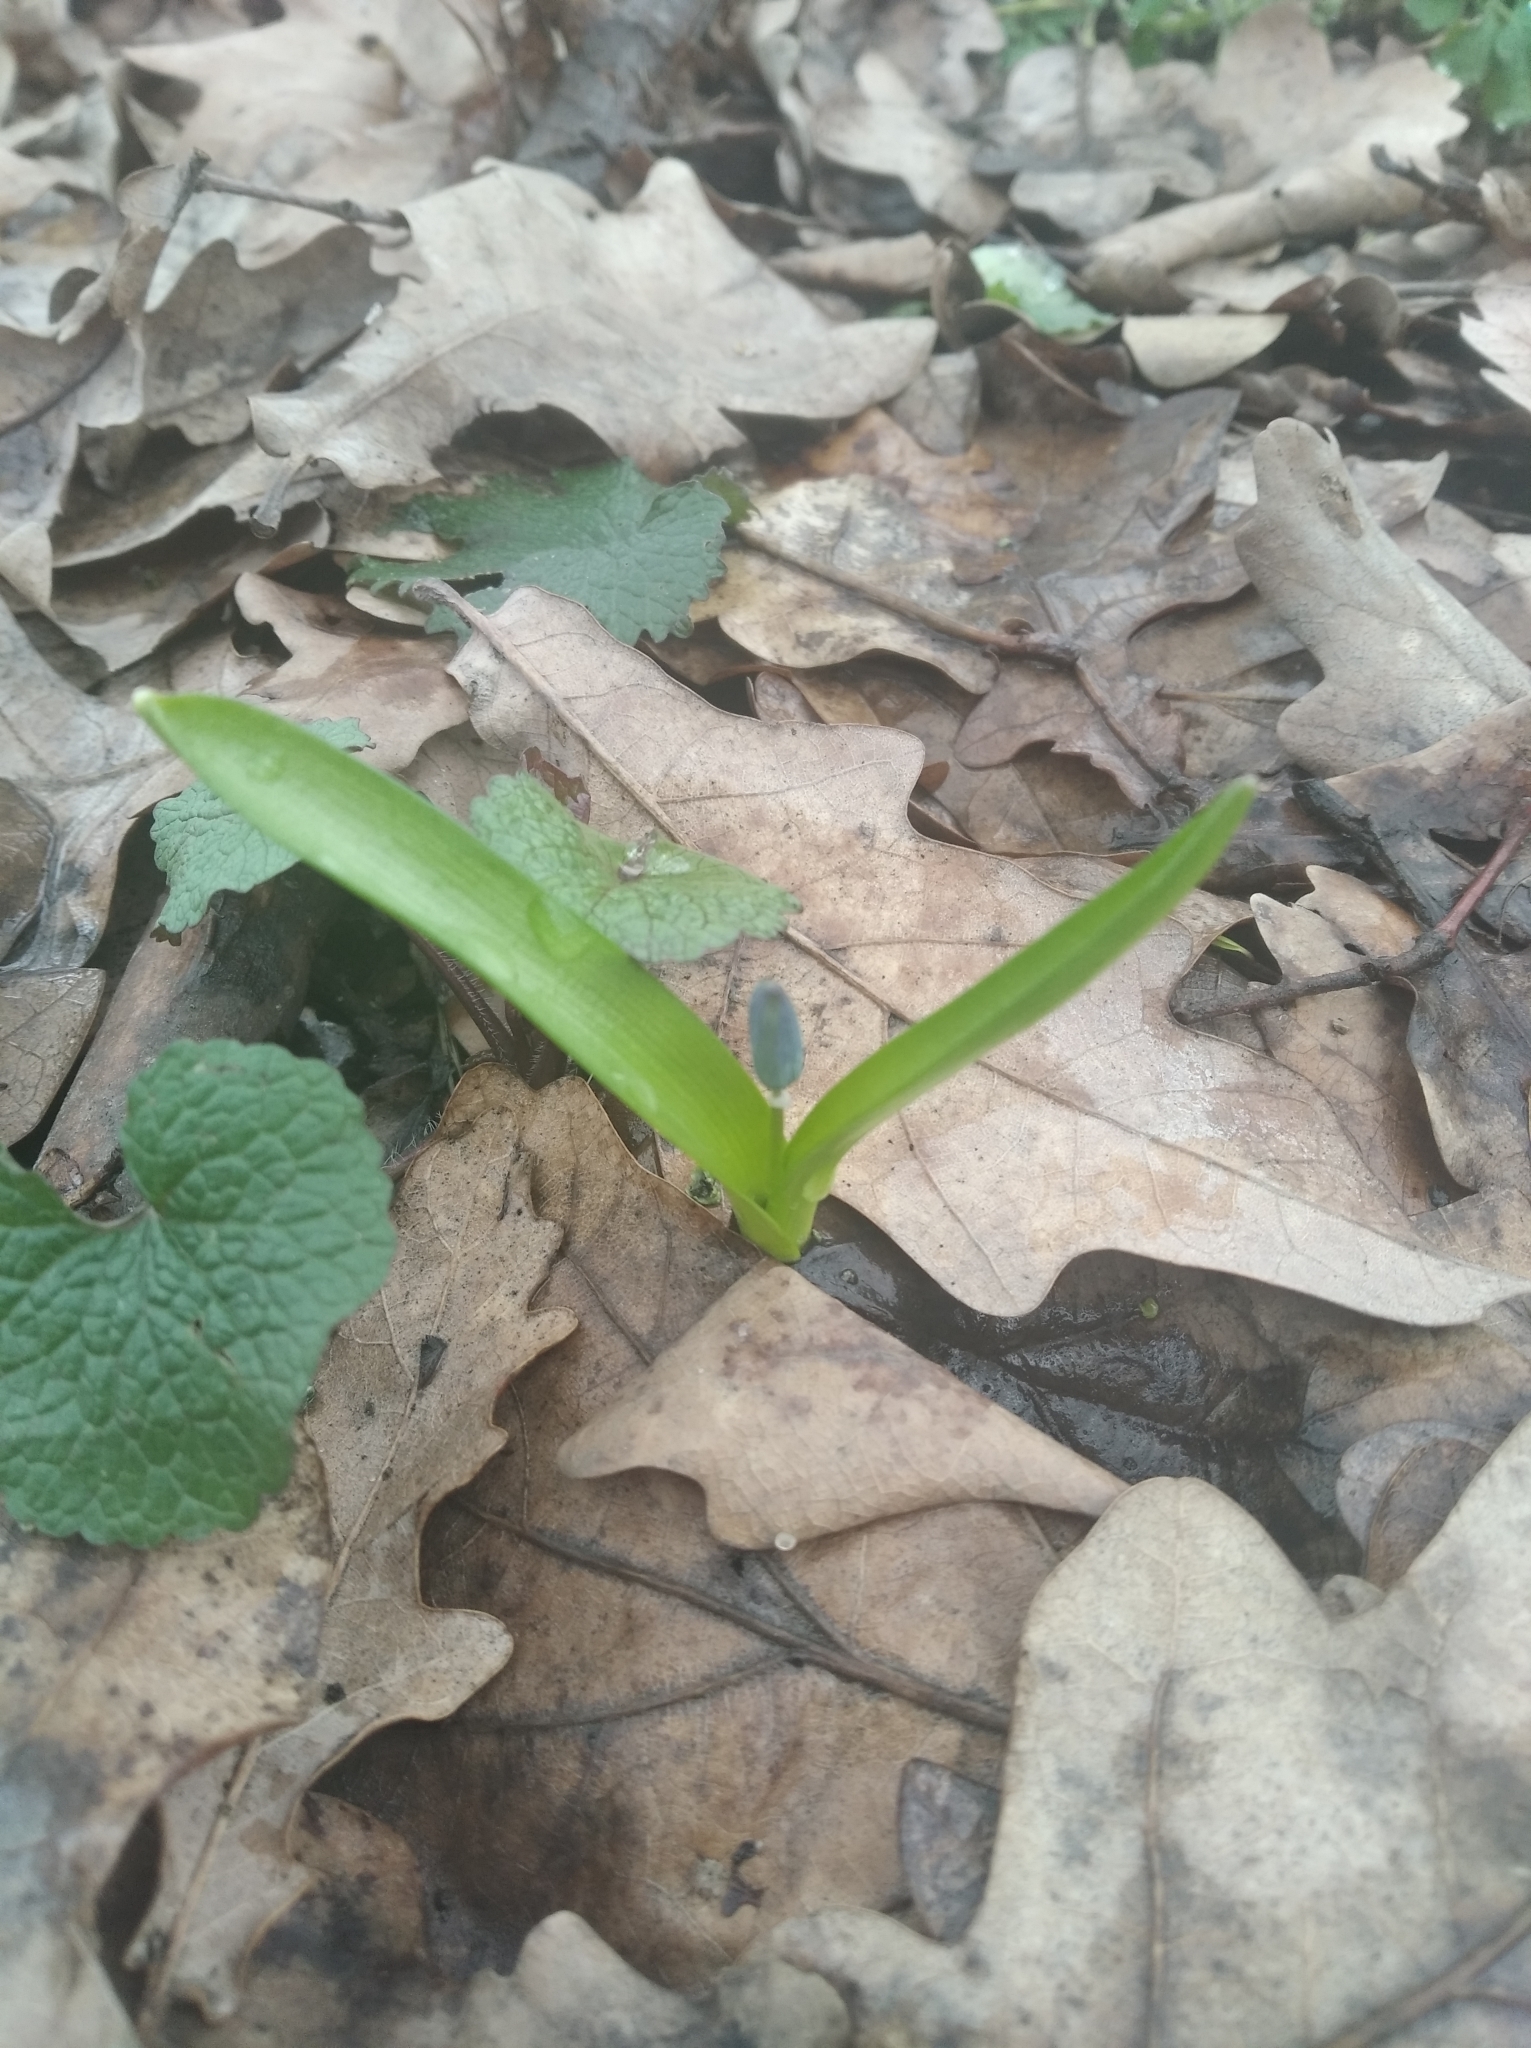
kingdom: Plantae
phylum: Tracheophyta
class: Liliopsida
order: Asparagales
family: Asparagaceae
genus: Scilla
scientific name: Scilla siberica
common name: Siberian squill
